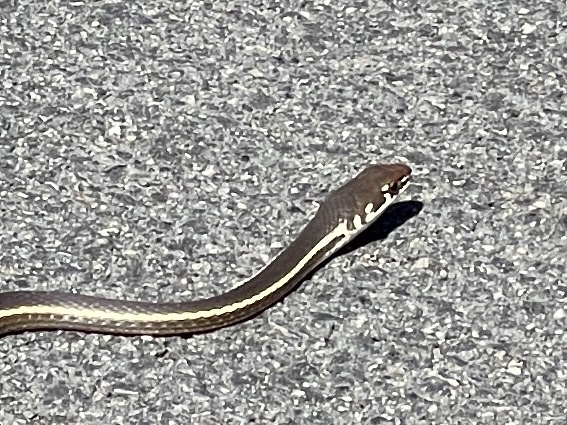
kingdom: Animalia
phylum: Chordata
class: Squamata
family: Colubridae
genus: Masticophis
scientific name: Masticophis lateralis
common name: Striped racer
